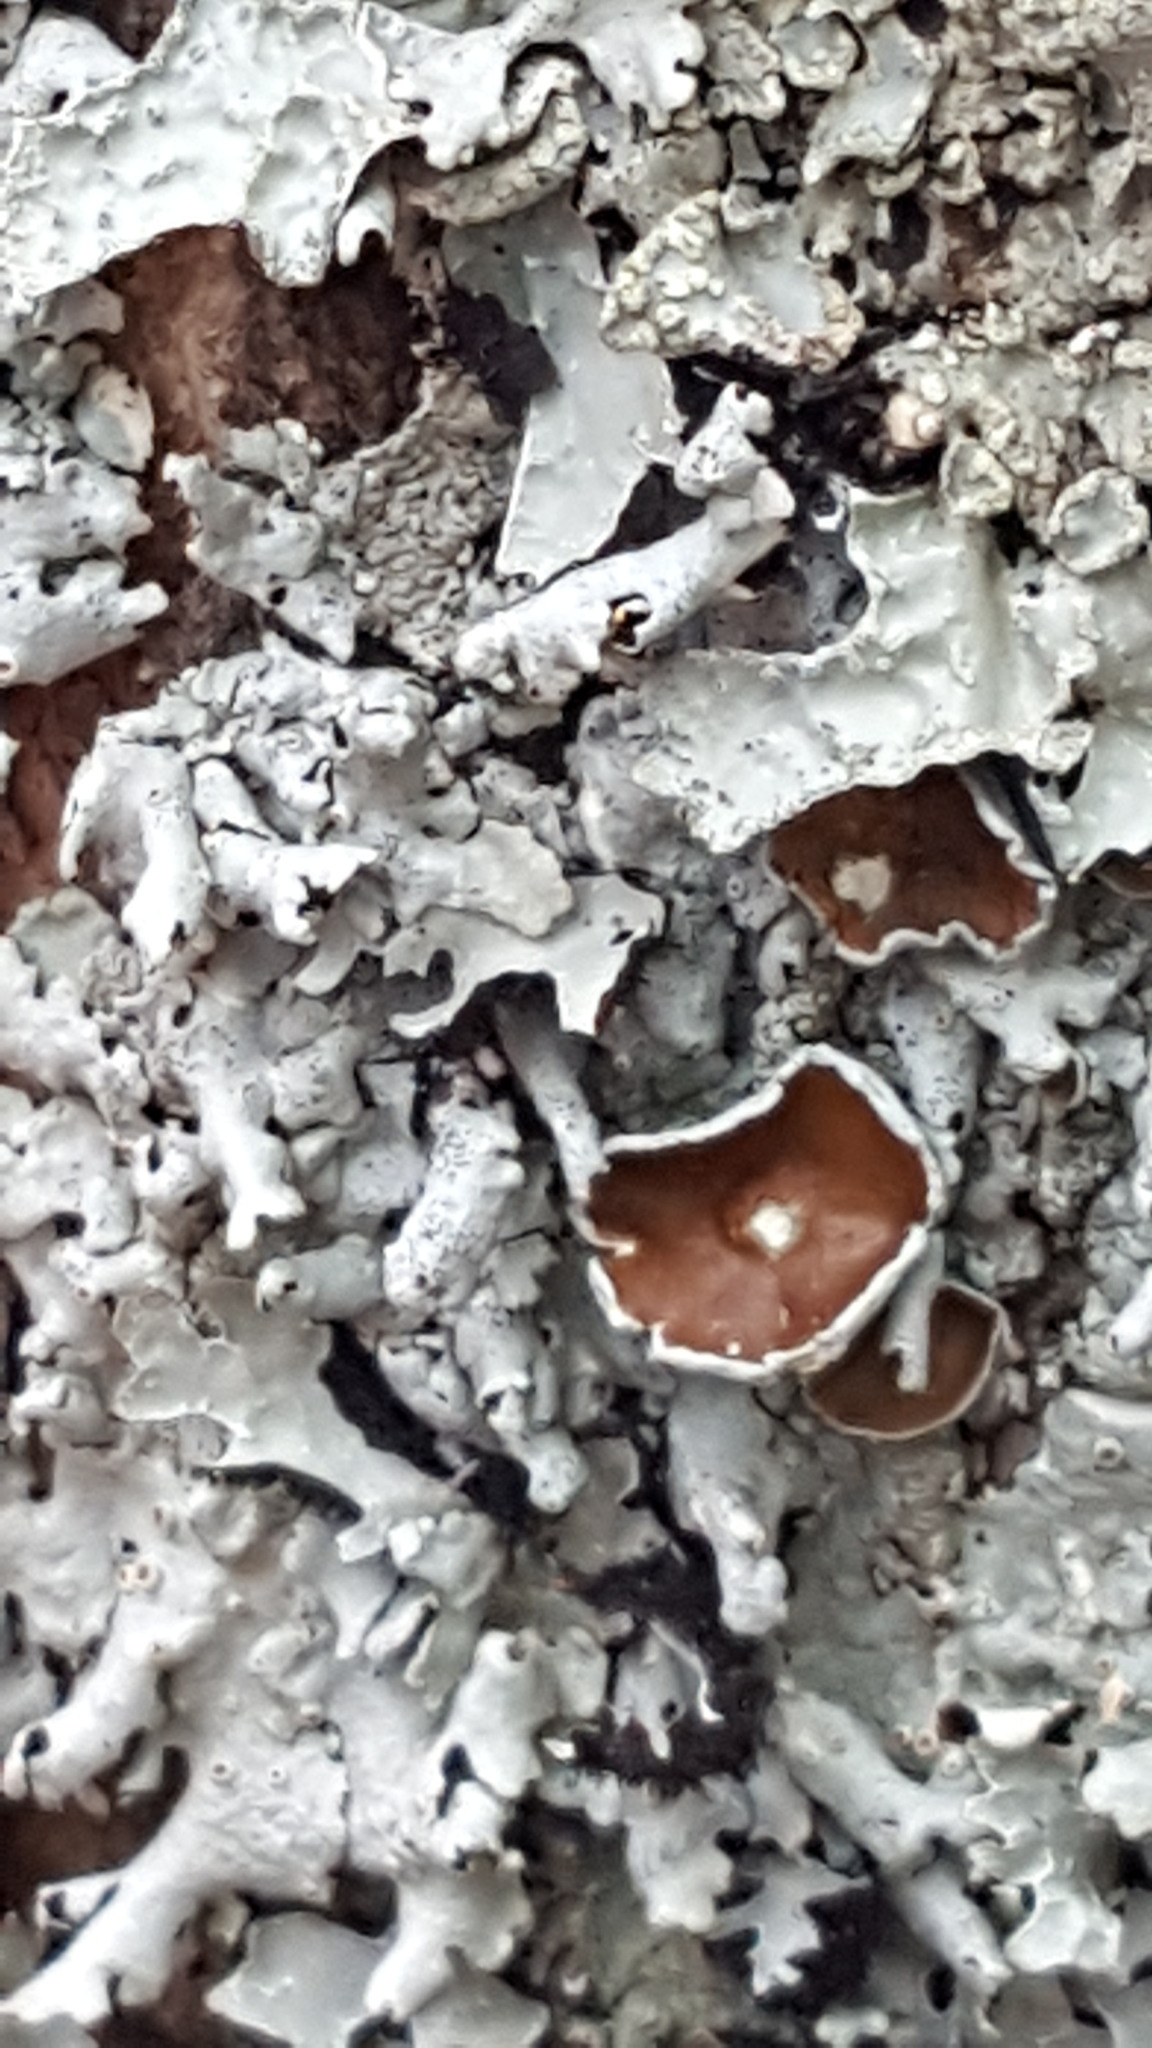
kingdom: Fungi
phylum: Ascomycota
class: Lecanoromycetes
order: Lecanorales
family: Parmeliaceae
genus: Myelochroa
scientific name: Myelochroa galbina
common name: Smooth axil-bristle lichen
